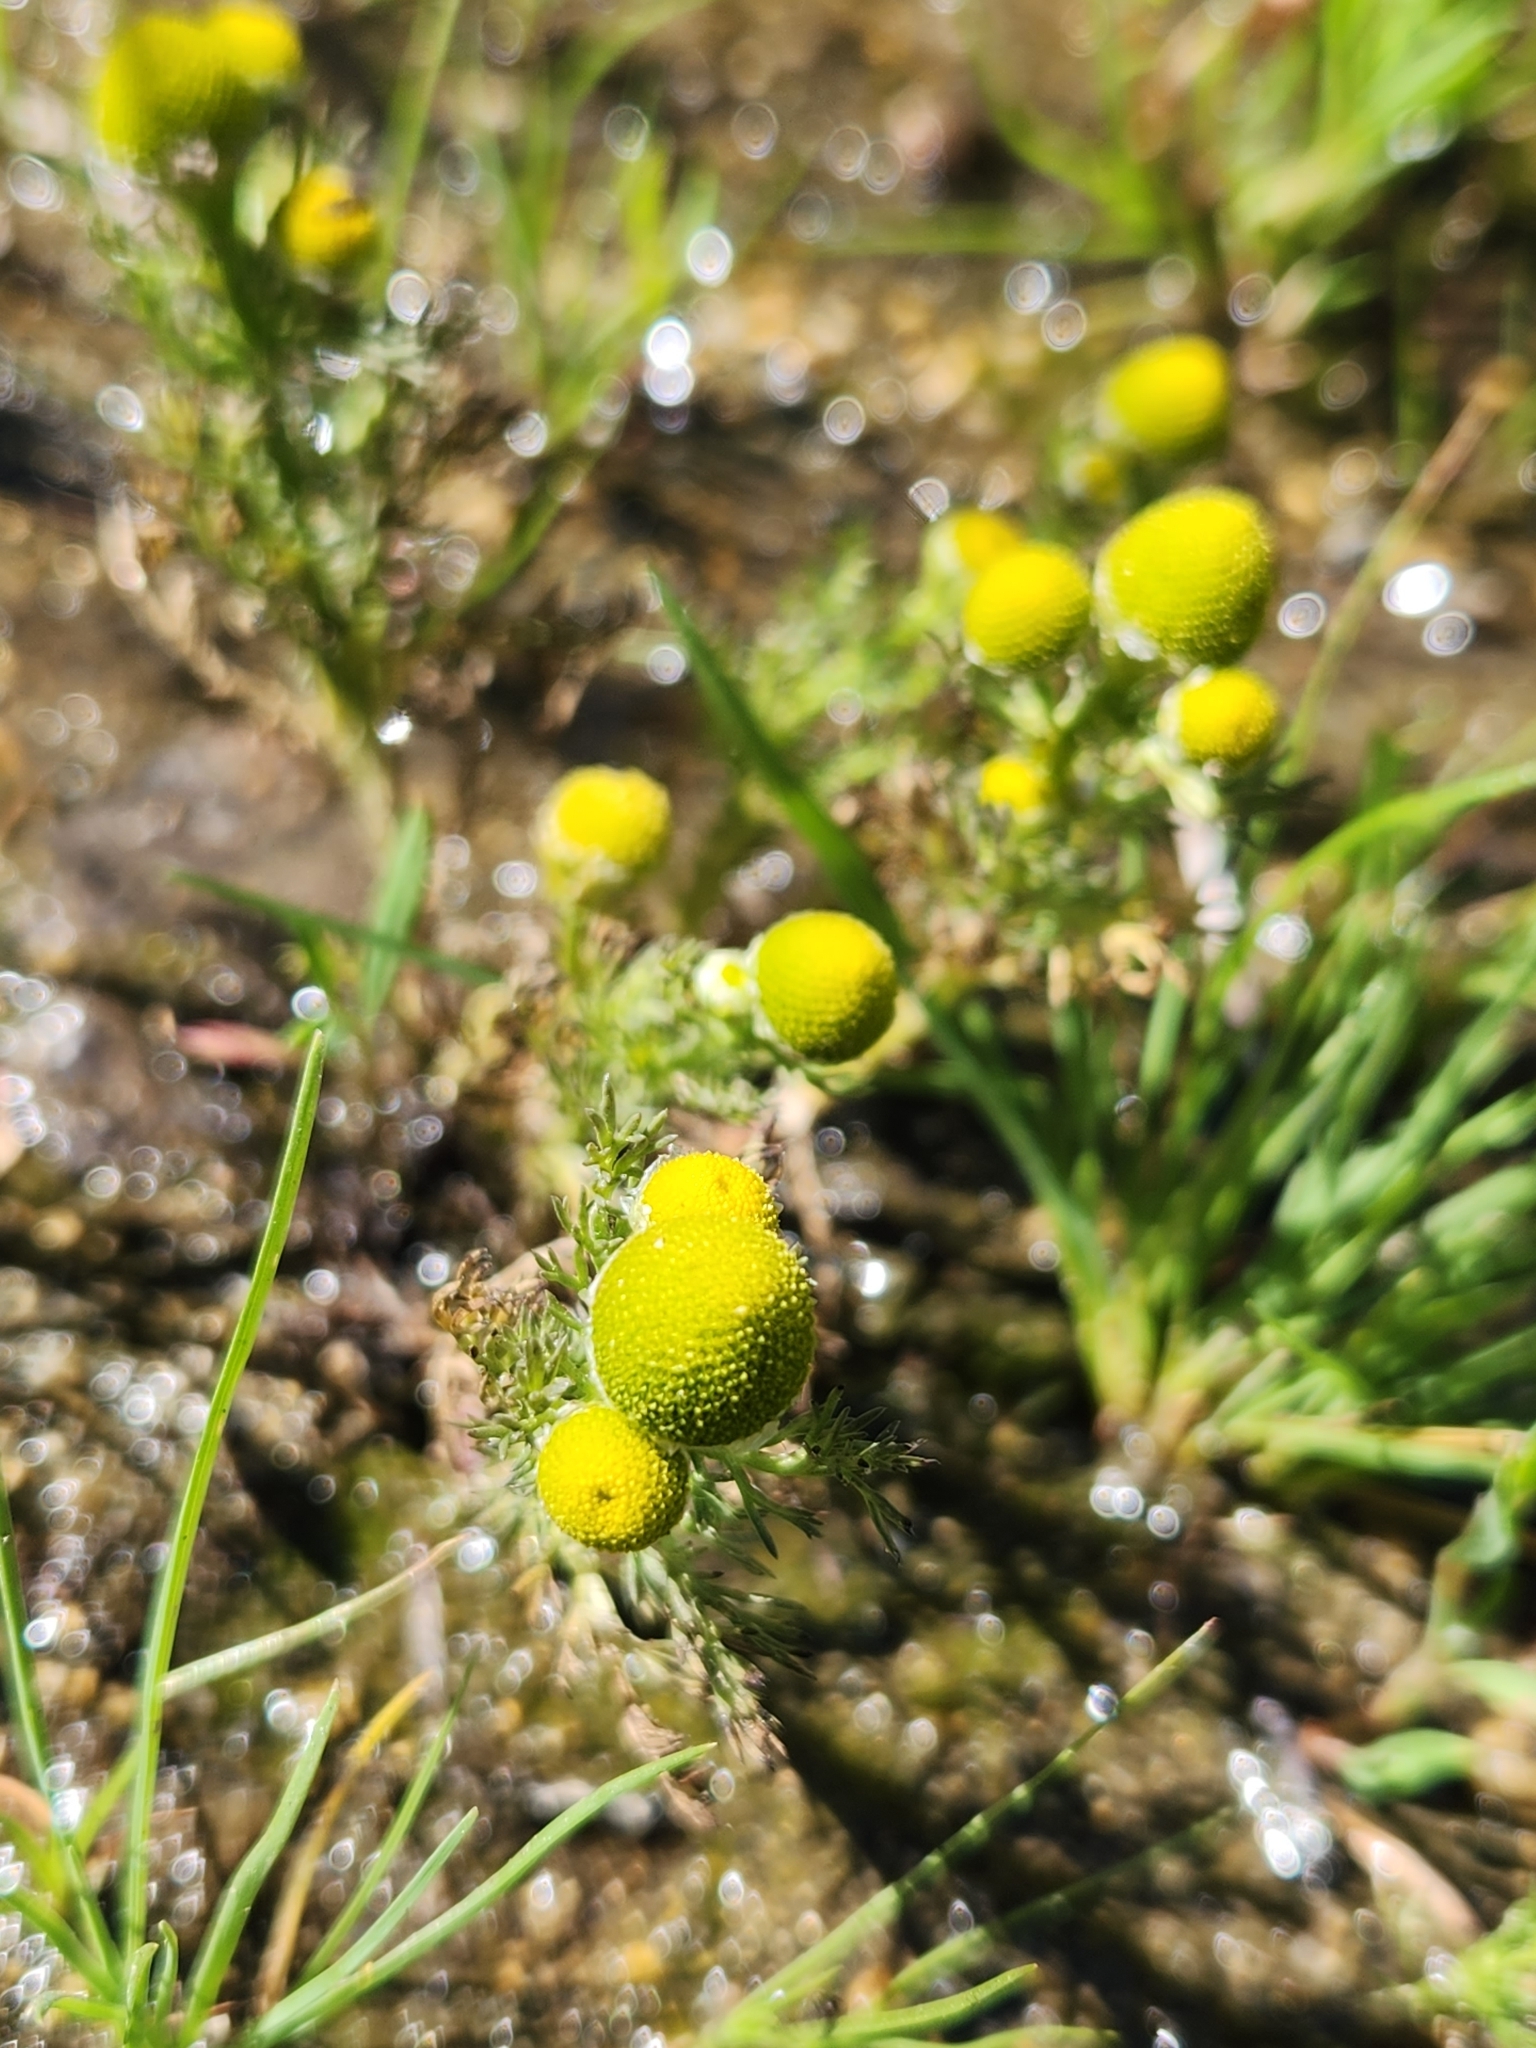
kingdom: Plantae
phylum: Tracheophyta
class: Magnoliopsida
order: Asterales
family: Asteraceae
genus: Matricaria
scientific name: Matricaria discoidea
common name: Disc mayweed
